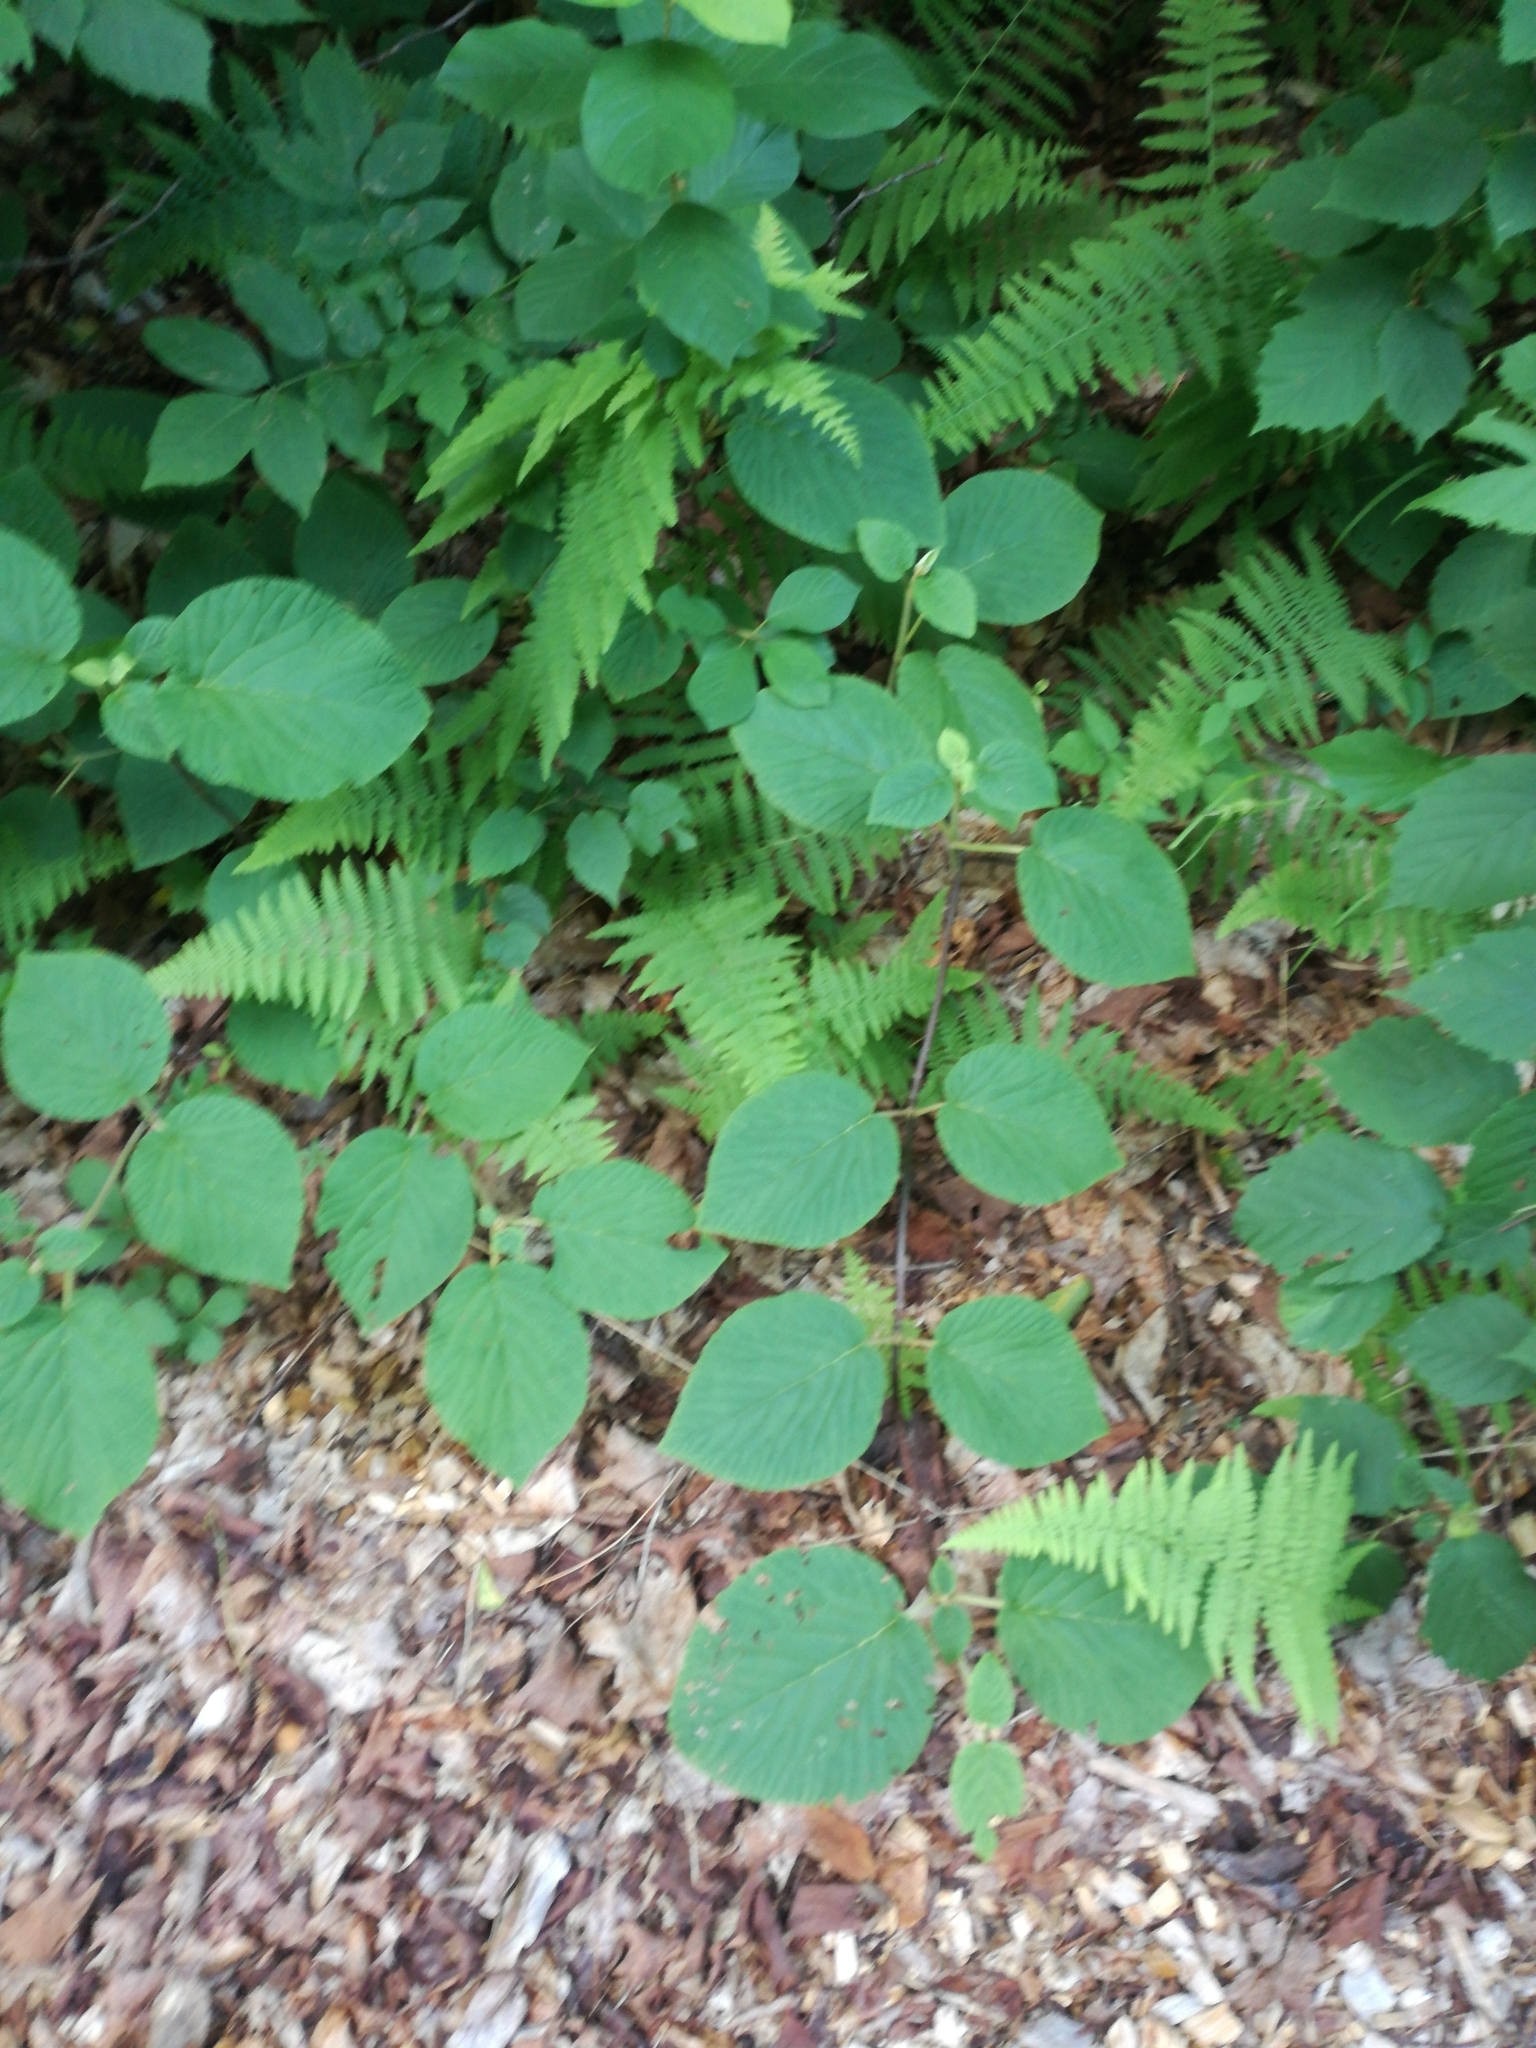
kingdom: Plantae
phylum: Tracheophyta
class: Magnoliopsida
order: Dipsacales
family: Viburnaceae
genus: Viburnum
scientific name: Viburnum lantanoides
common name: Hobblebush
